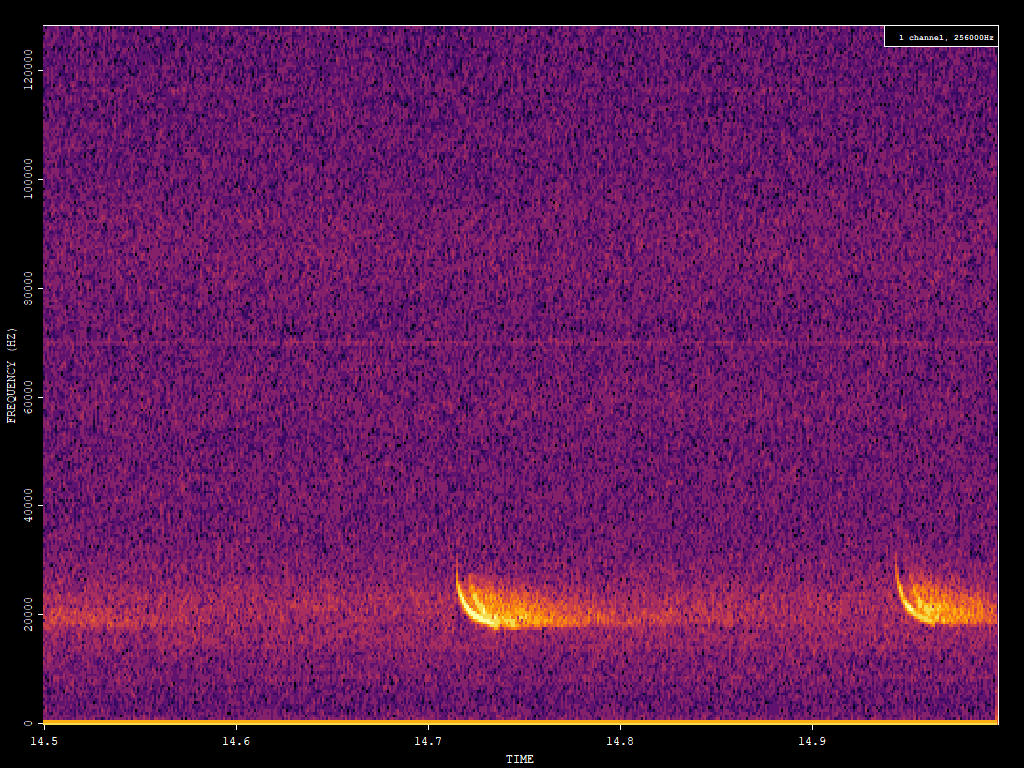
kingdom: Animalia
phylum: Chordata
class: Mammalia
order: Chiroptera
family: Vespertilionidae
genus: Nyctalus
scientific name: Nyctalus noctula
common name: Noctule
